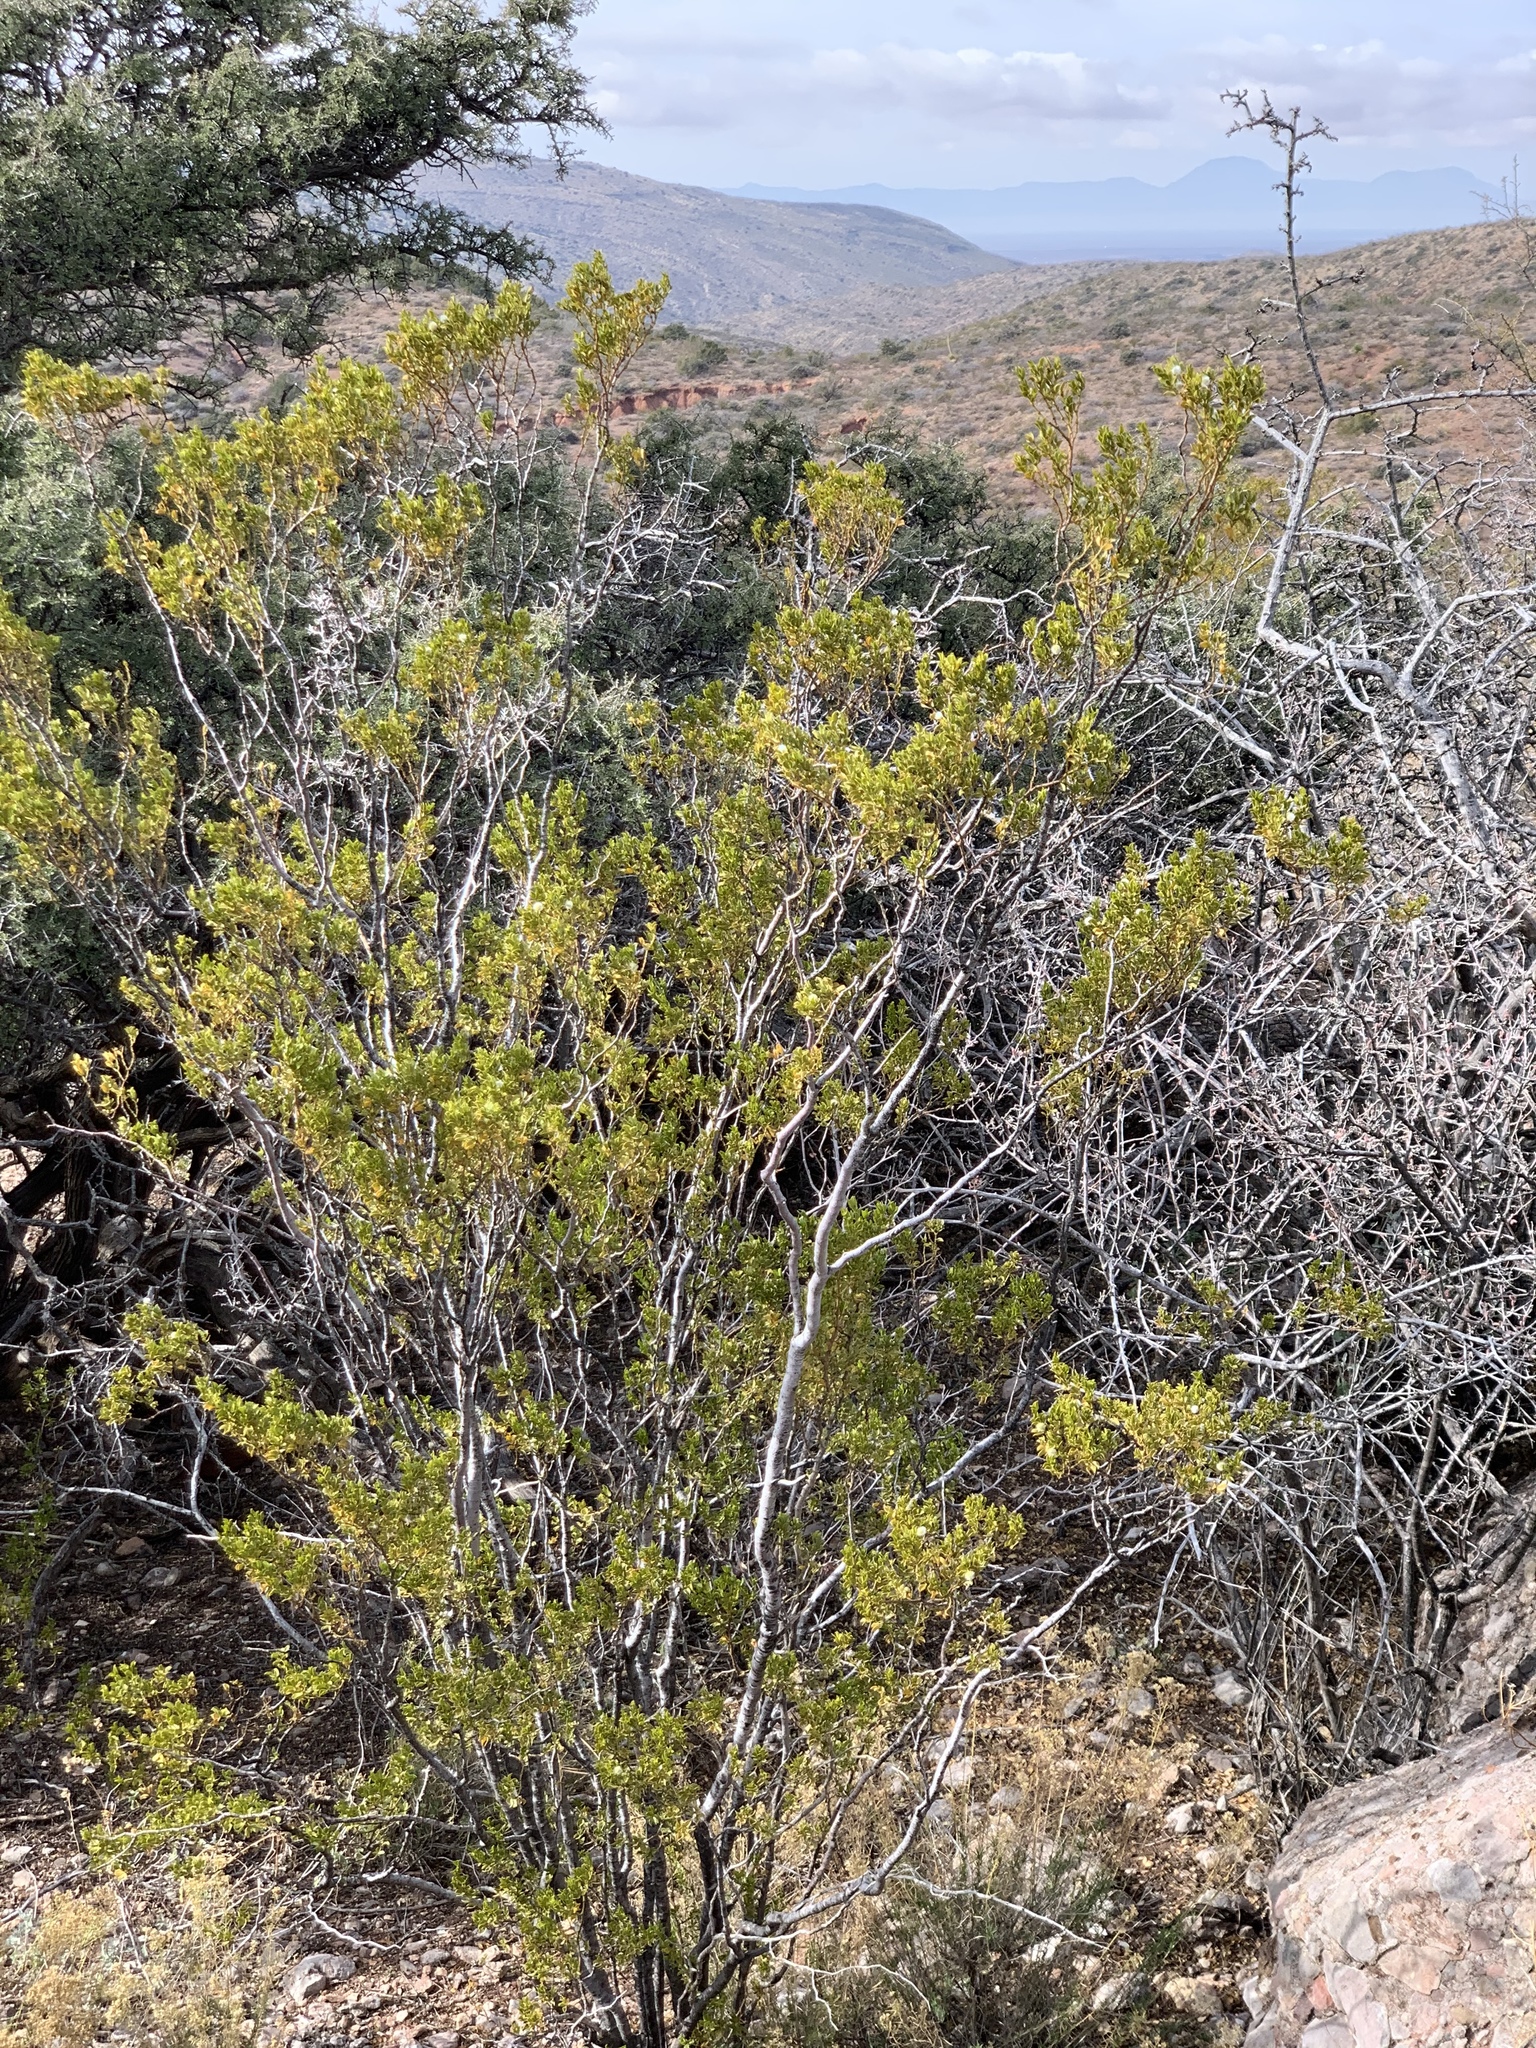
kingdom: Plantae
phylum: Tracheophyta
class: Magnoliopsida
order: Zygophyllales
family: Zygophyllaceae
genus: Larrea
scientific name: Larrea tridentata
